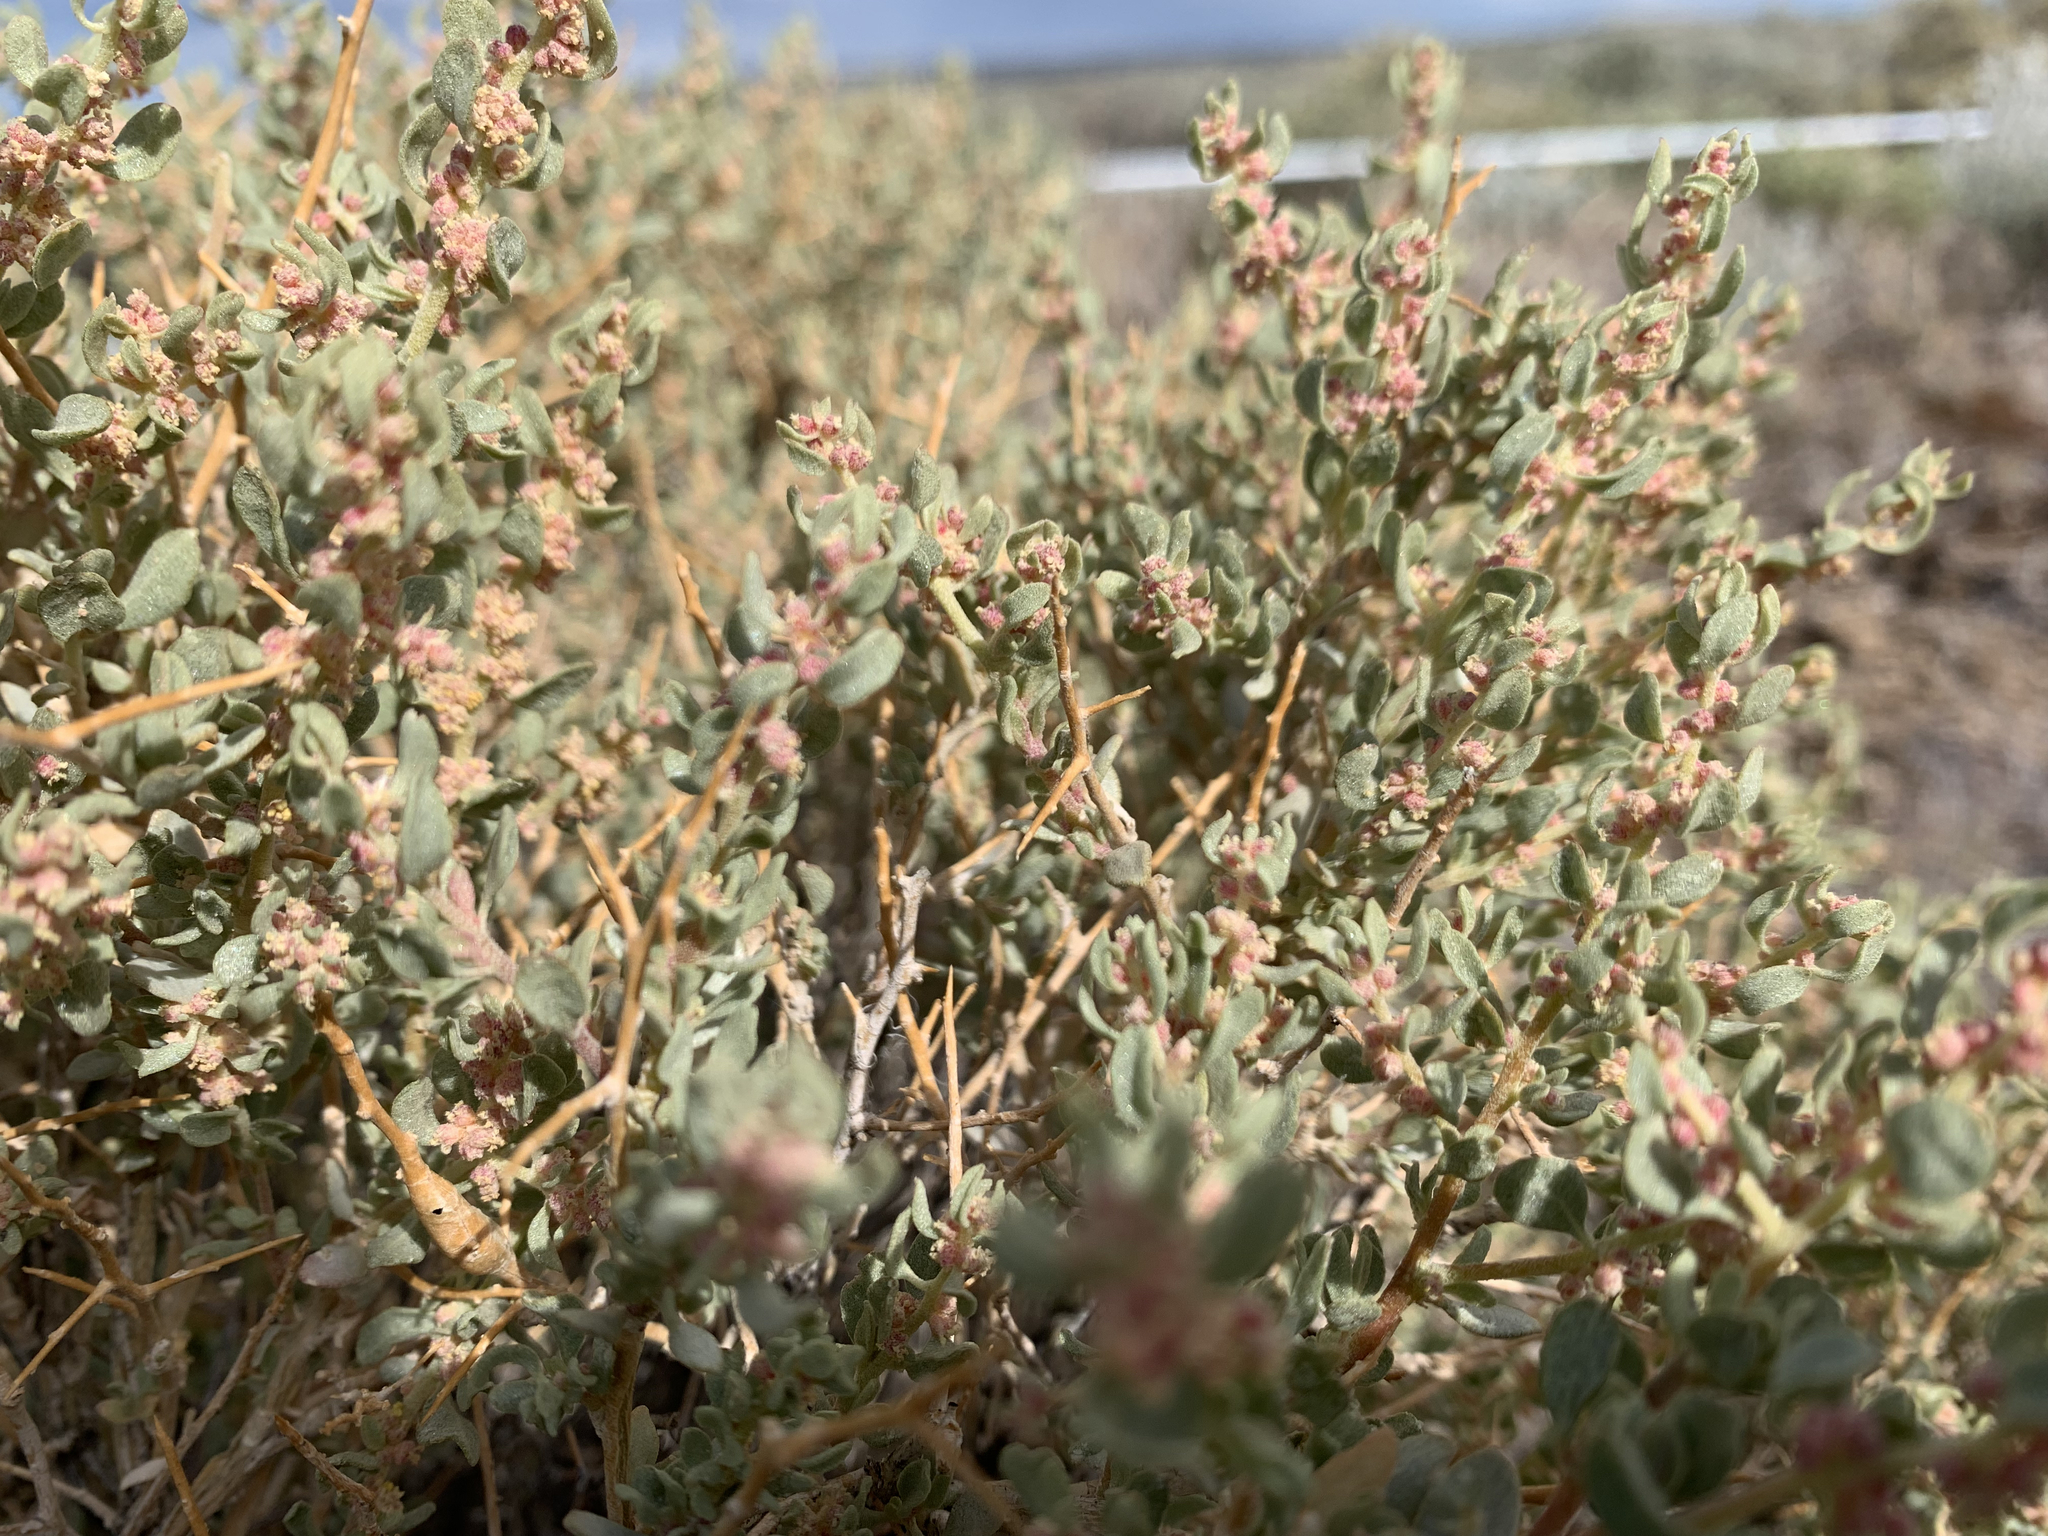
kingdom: Plantae
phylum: Tracheophyta
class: Magnoliopsida
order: Caryophyllales
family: Amaranthaceae
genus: Atriplex
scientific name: Atriplex confertifolia
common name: Shadscale
